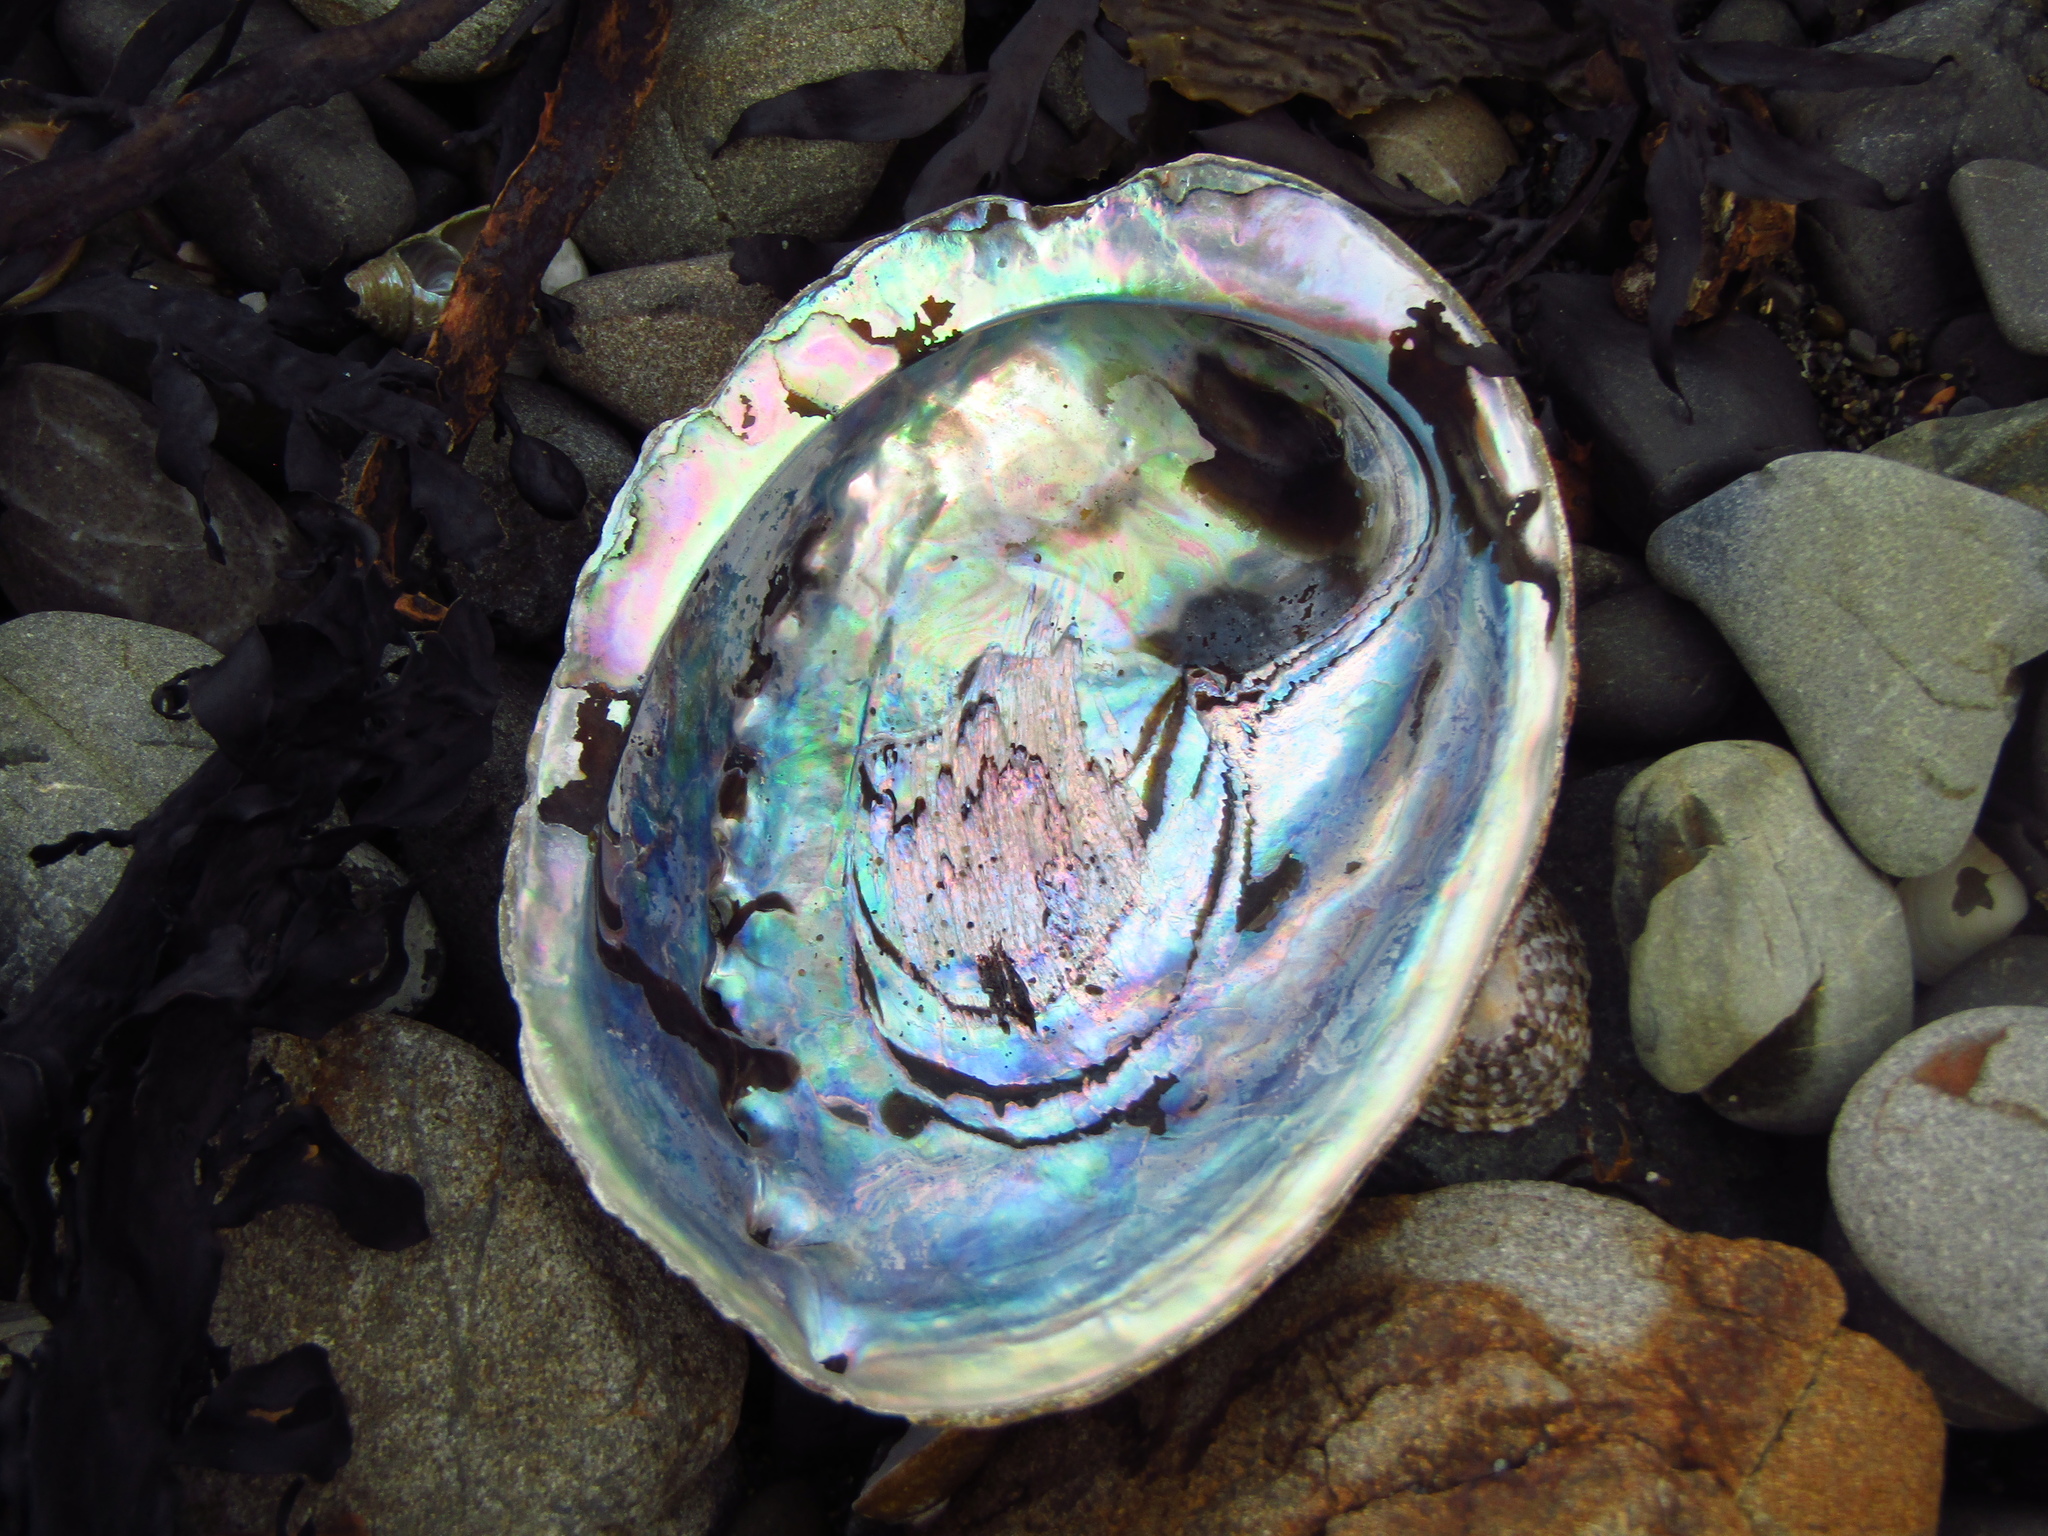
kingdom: Animalia
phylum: Mollusca
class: Gastropoda
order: Lepetellida
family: Haliotidae
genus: Haliotis
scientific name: Haliotis iris
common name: Abalone
